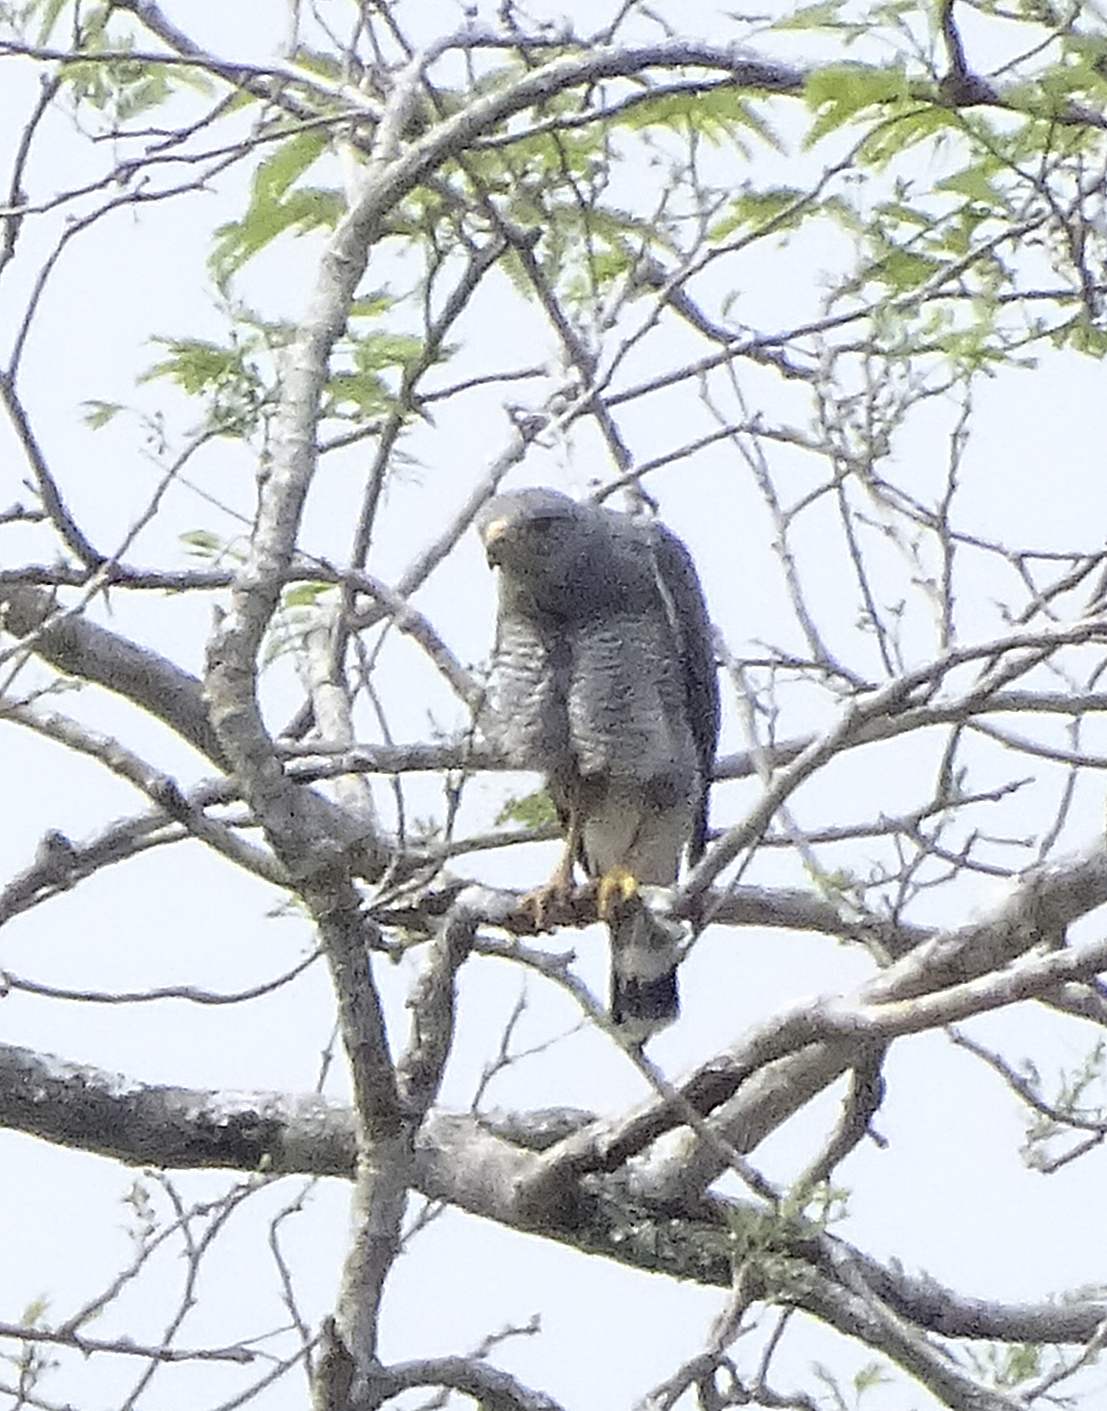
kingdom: Animalia
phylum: Chordata
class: Aves
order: Accipitriformes
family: Accipitridae
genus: Buteo
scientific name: Buteo nitidus
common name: Grey-lined hawk
